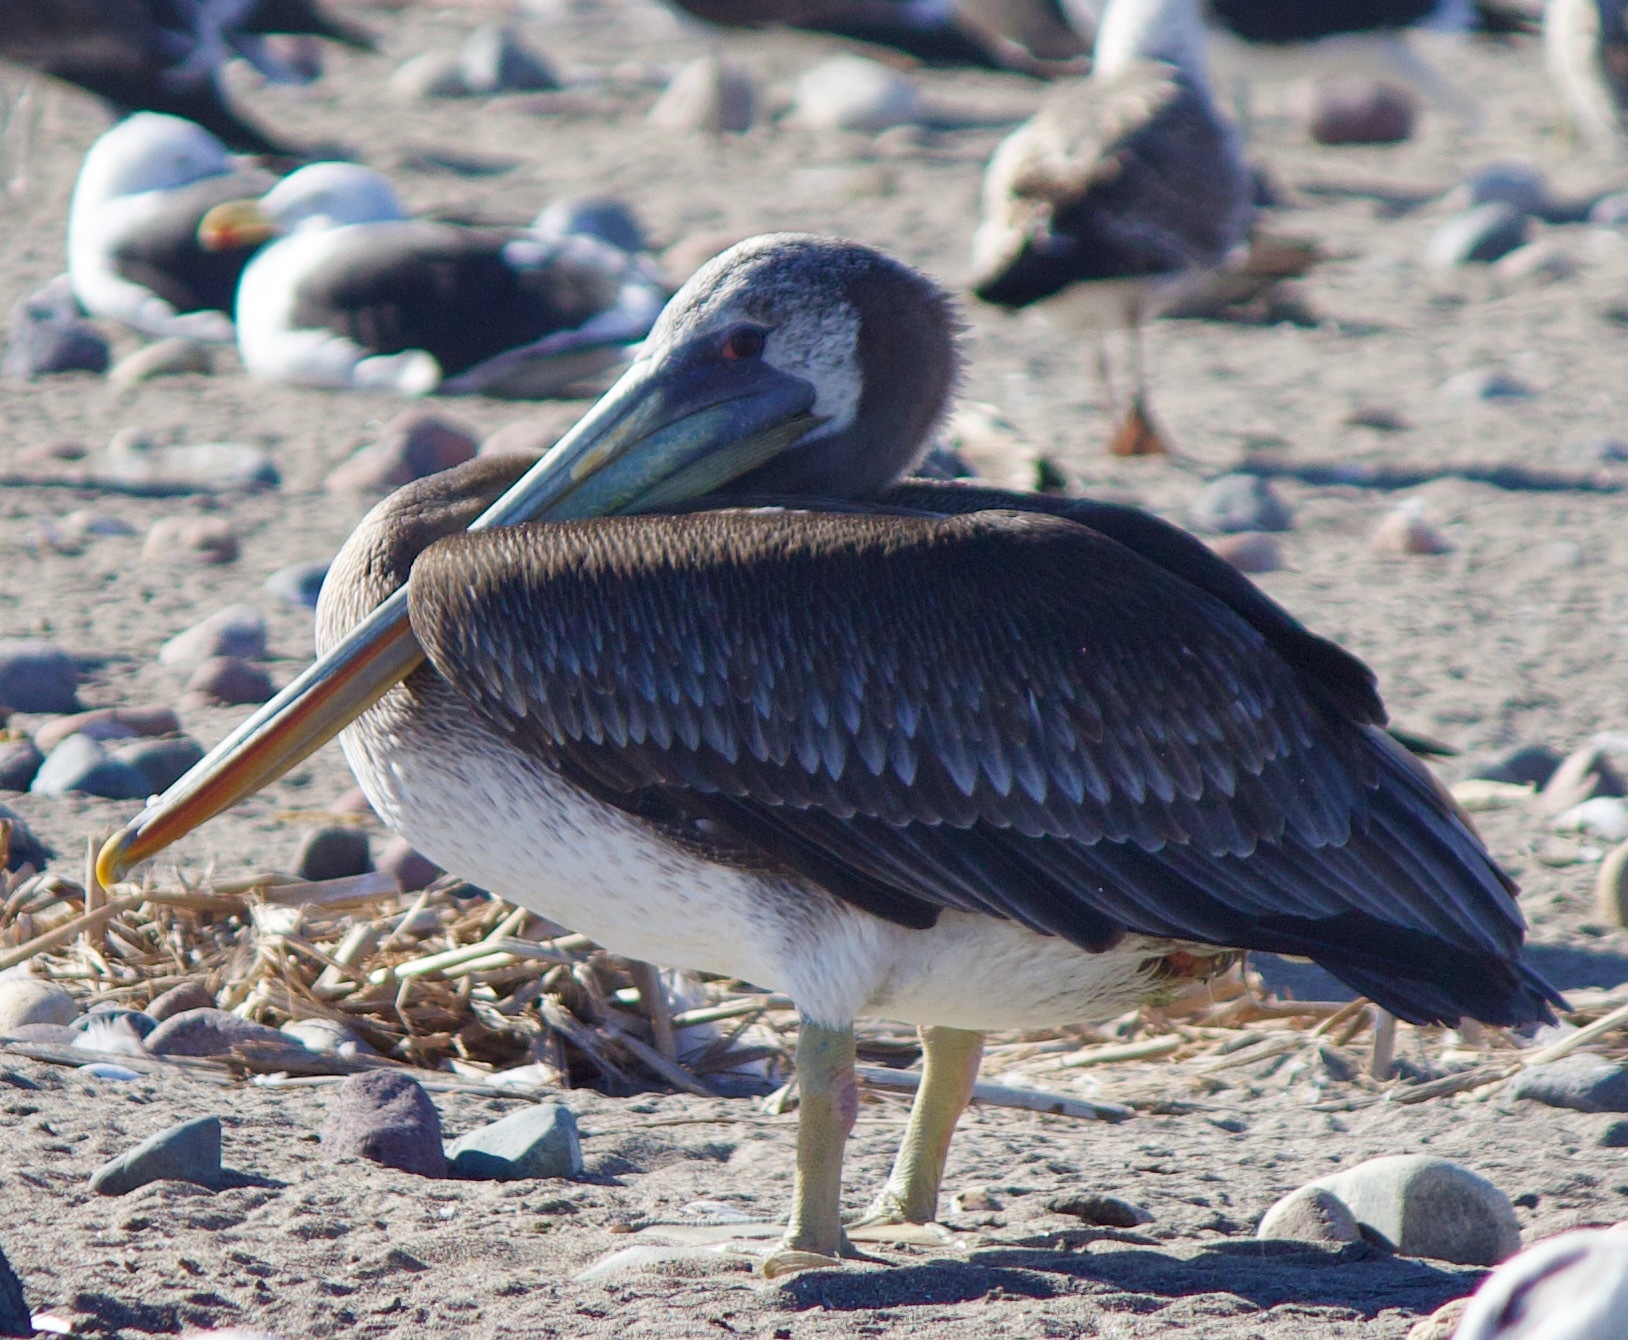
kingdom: Animalia
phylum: Chordata
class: Aves
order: Pelecaniformes
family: Pelecanidae
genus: Pelecanus
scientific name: Pelecanus thagus
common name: Peruvian pelican
